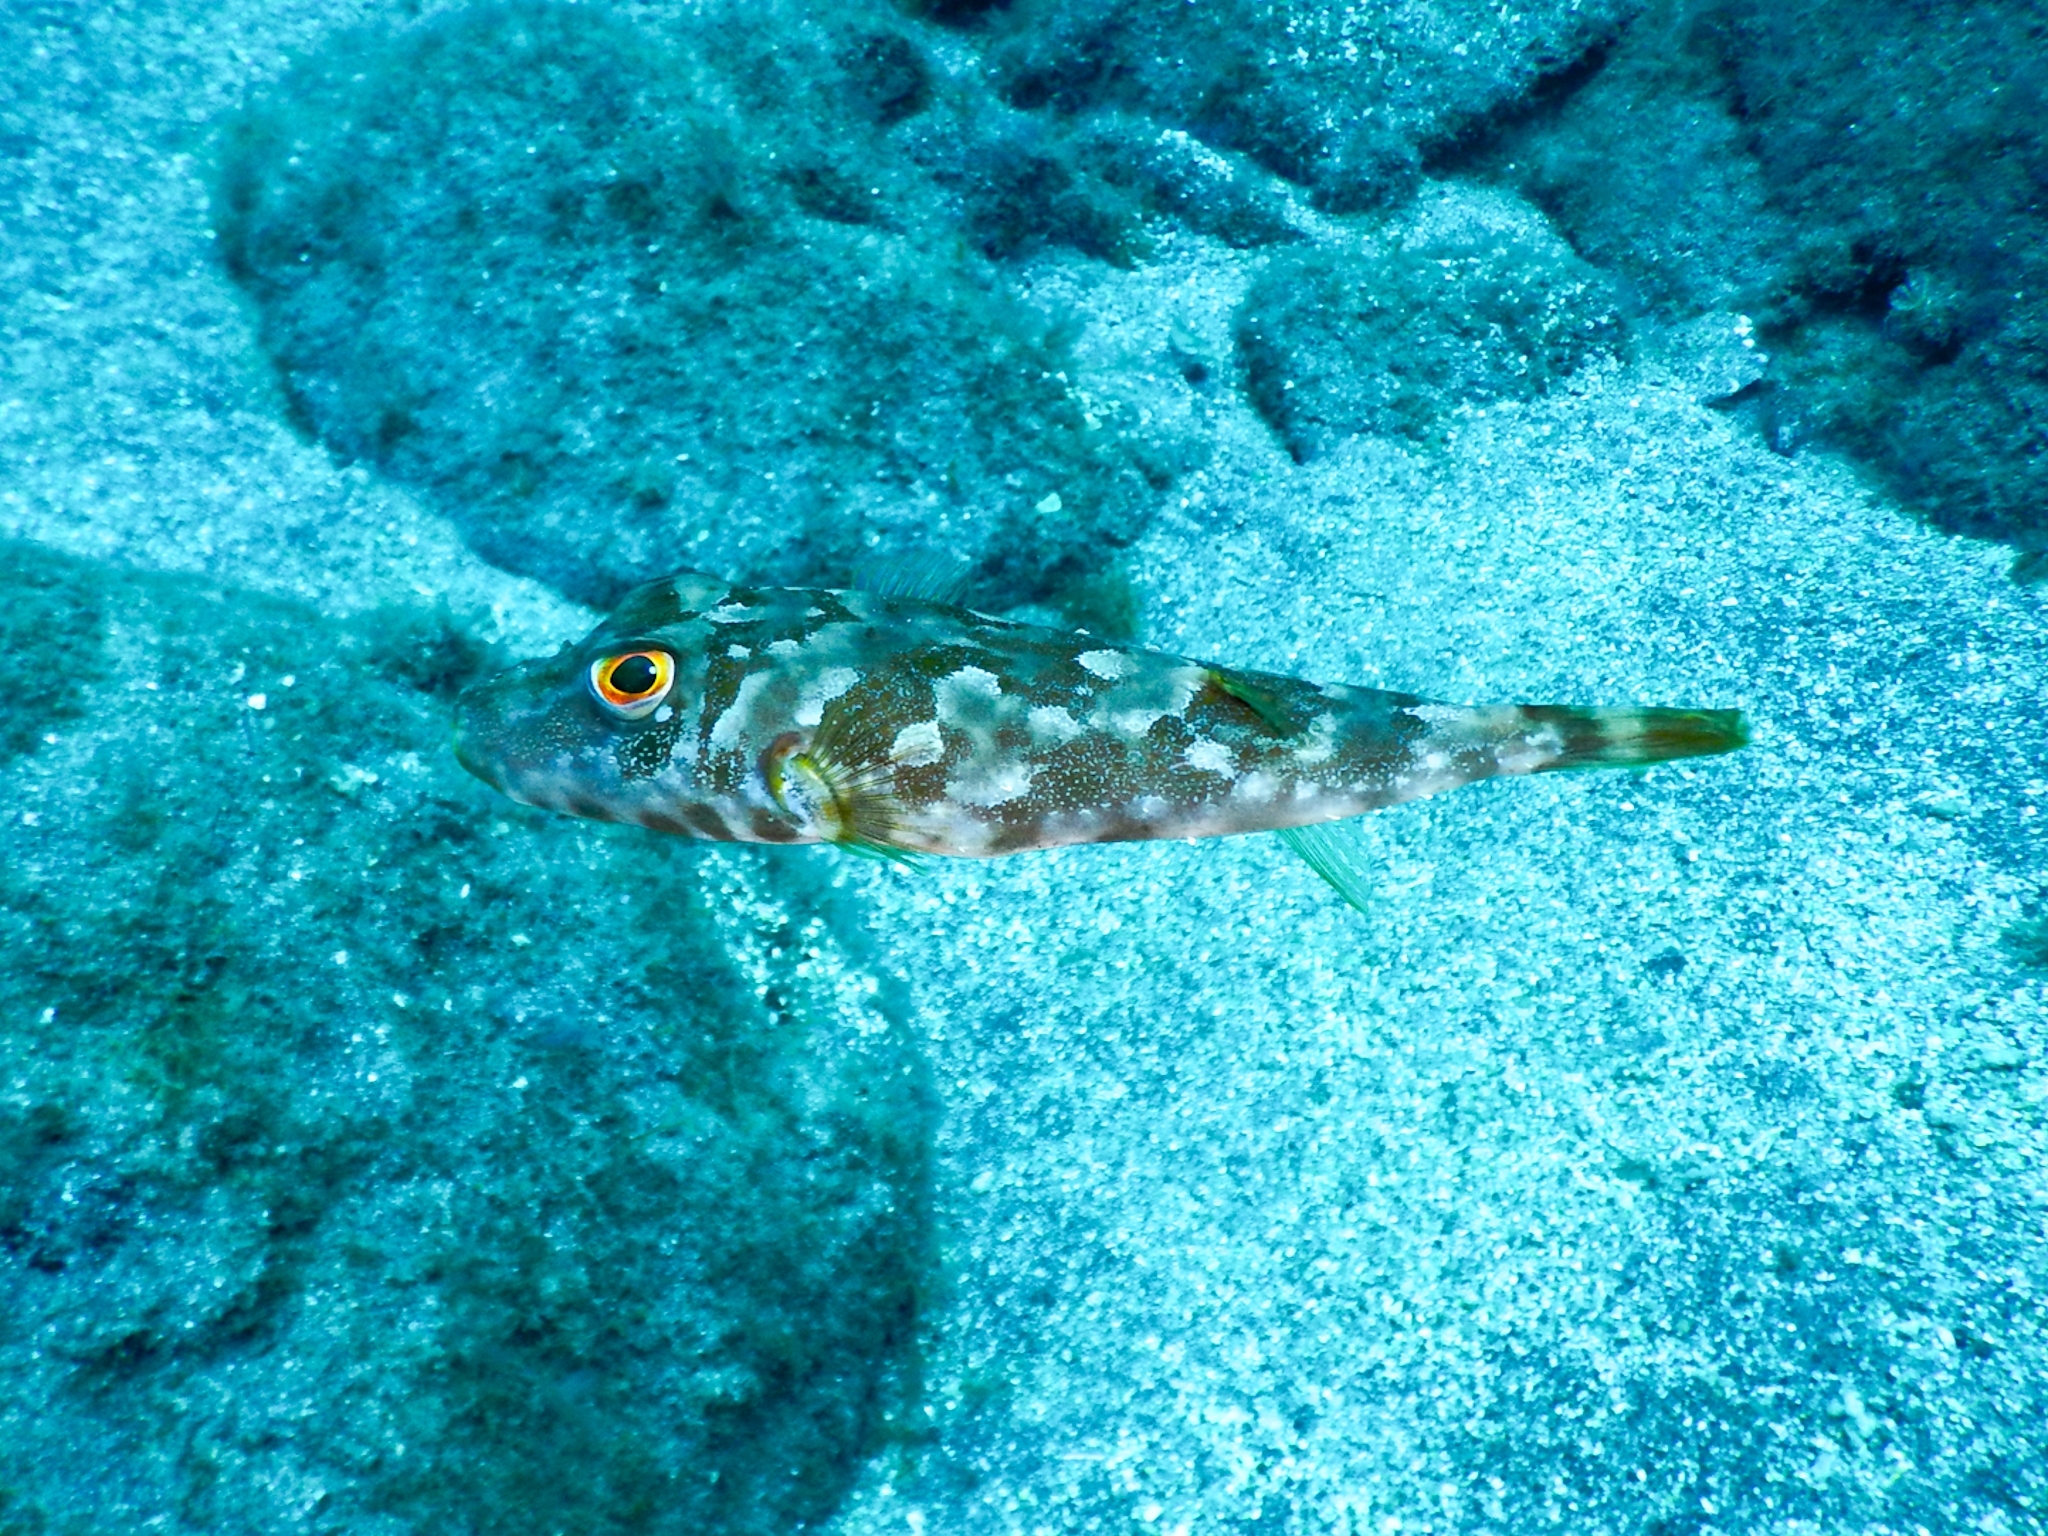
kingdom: Animalia
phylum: Chordata
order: Tetraodontiformes
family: Tetraodontidae
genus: Sphoeroides
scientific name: Sphoeroides marmoratus
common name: Guinean puffer
